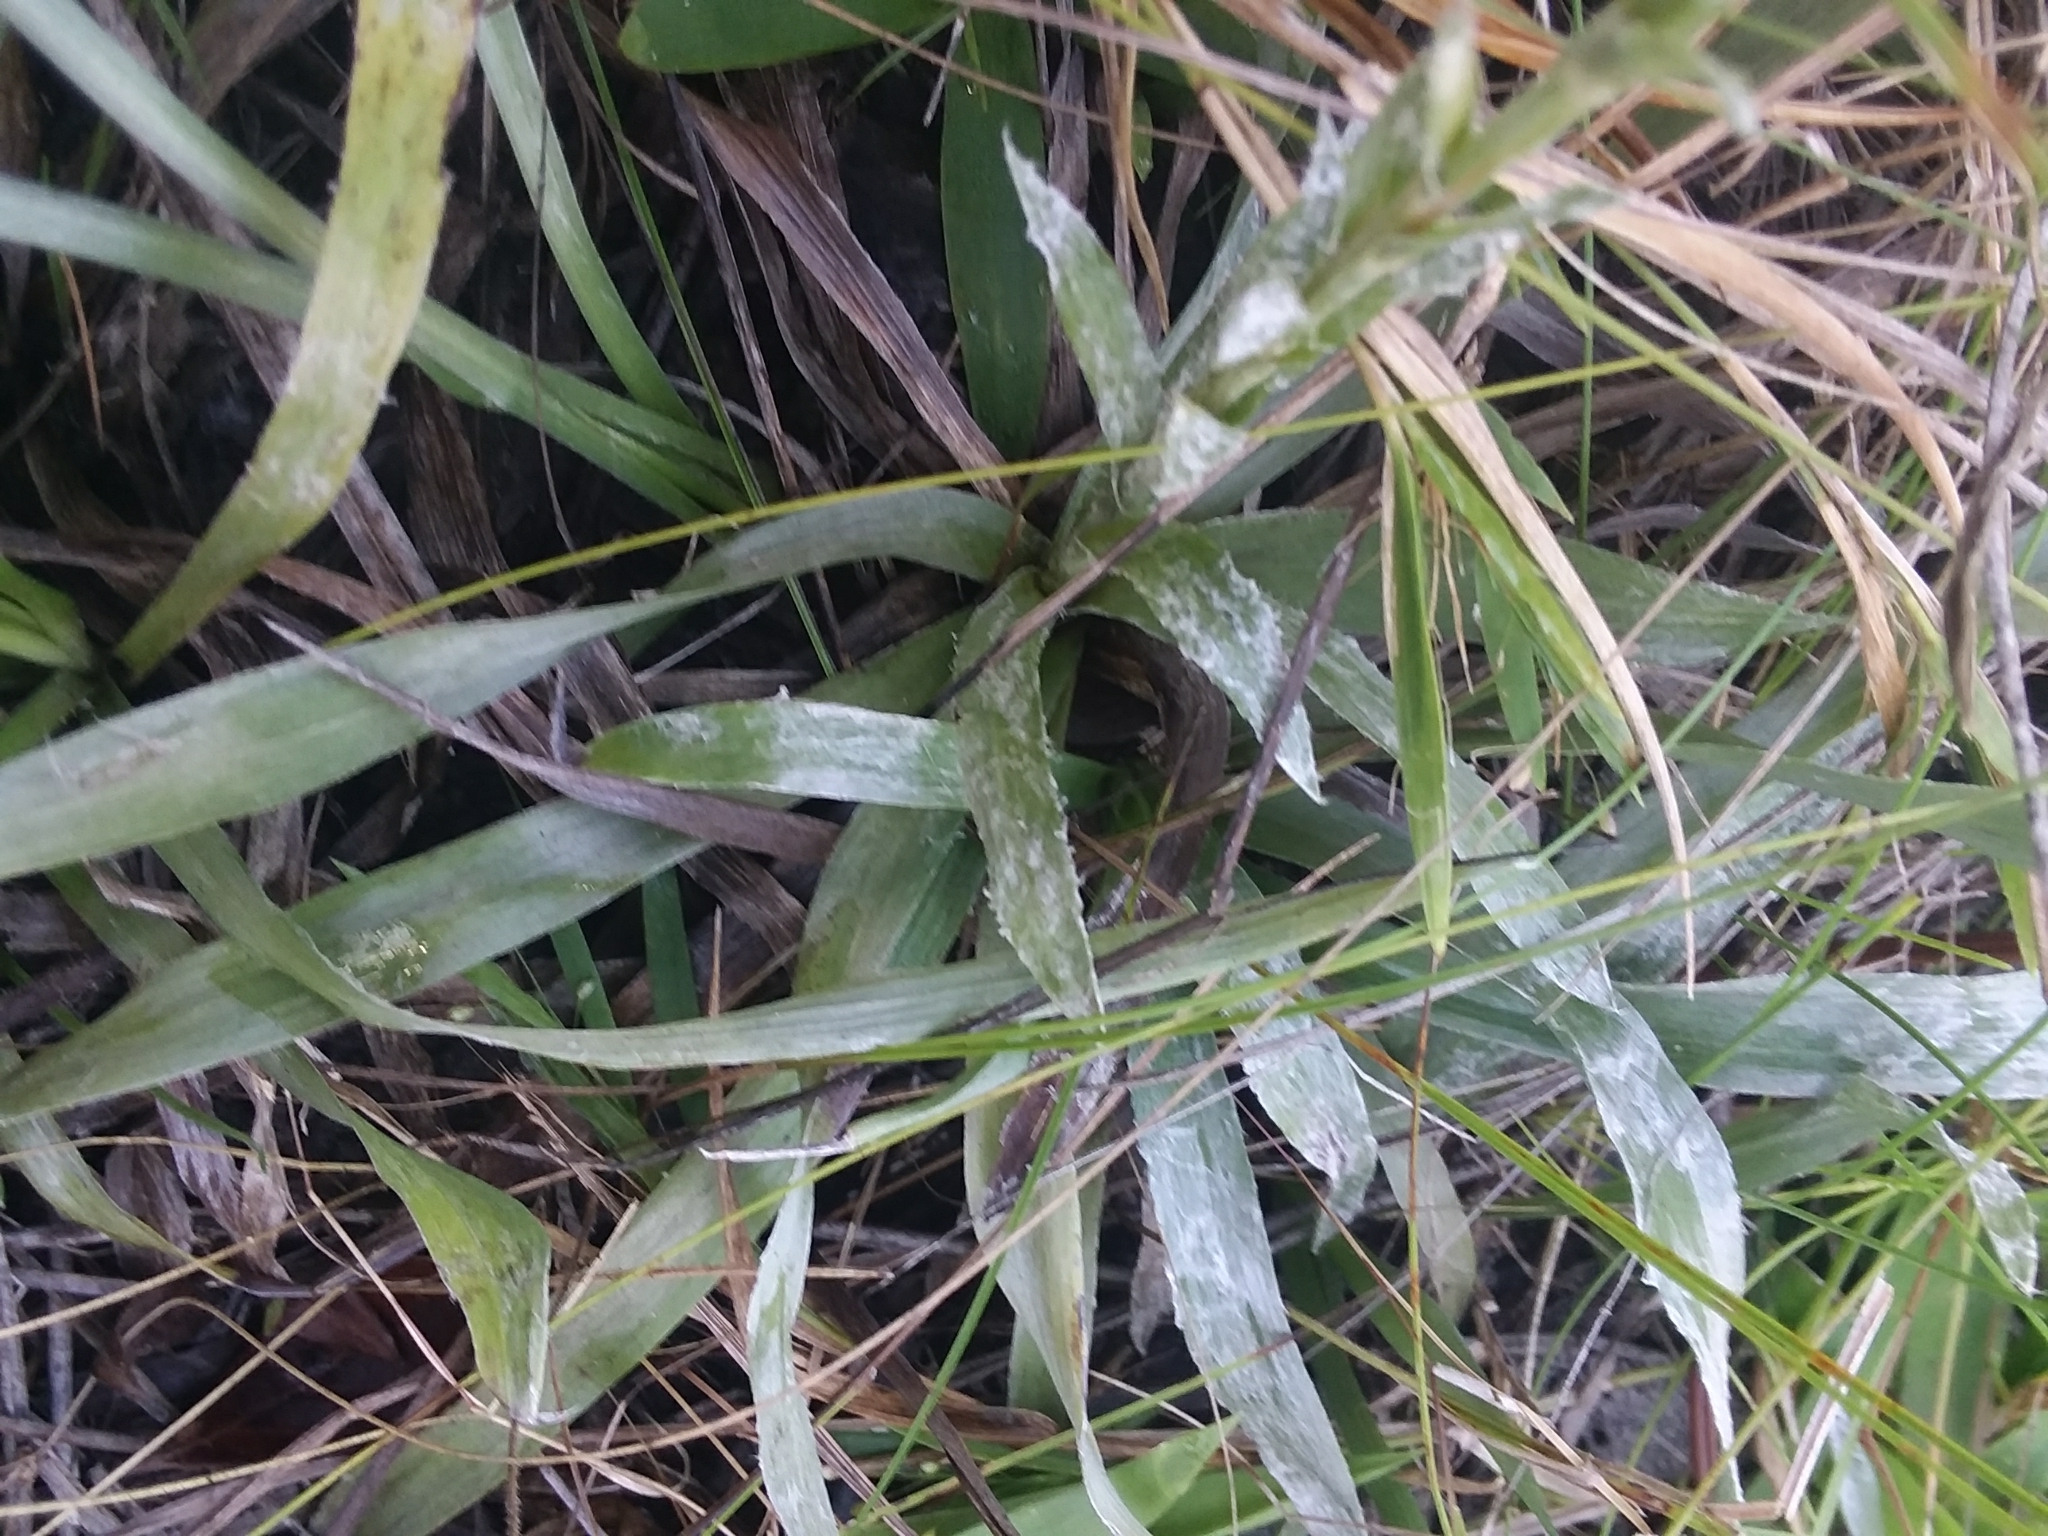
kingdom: Plantae
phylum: Tracheophyta
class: Magnoliopsida
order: Asterales
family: Asteraceae
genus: Pityopsis
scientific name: Pityopsis graminifolia
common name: Grass-leaf golden-aster
